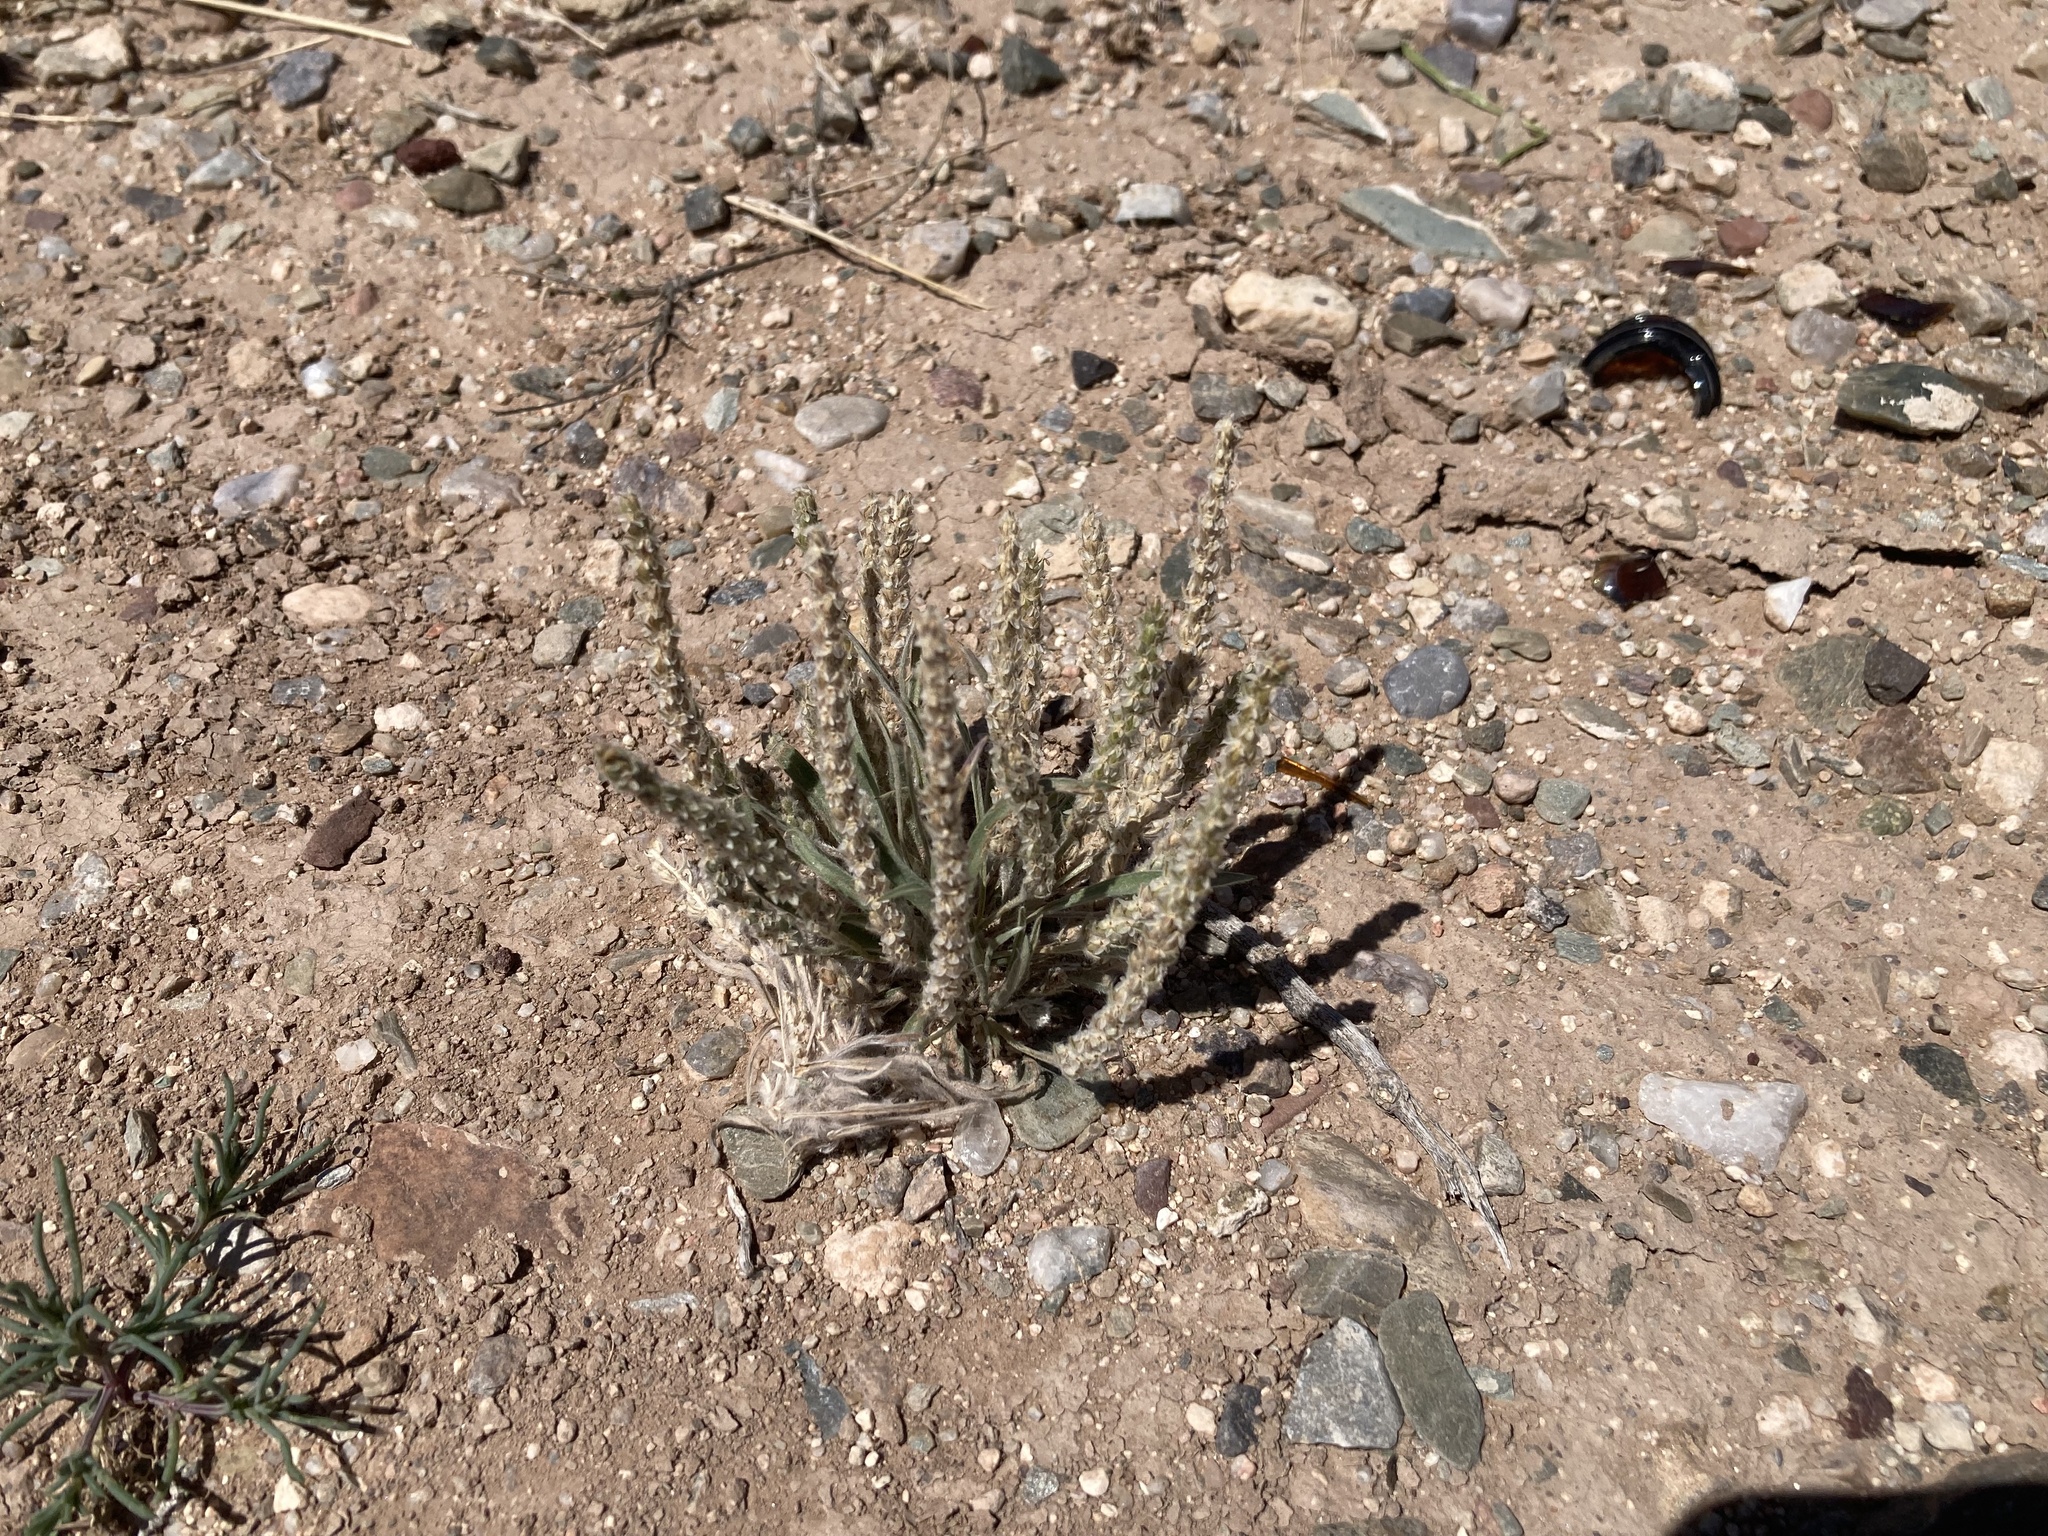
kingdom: Plantae
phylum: Tracheophyta
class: Magnoliopsida
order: Lamiales
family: Plantaginaceae
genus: Plantago
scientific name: Plantago patagonica
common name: Patagonia indian-wheat
